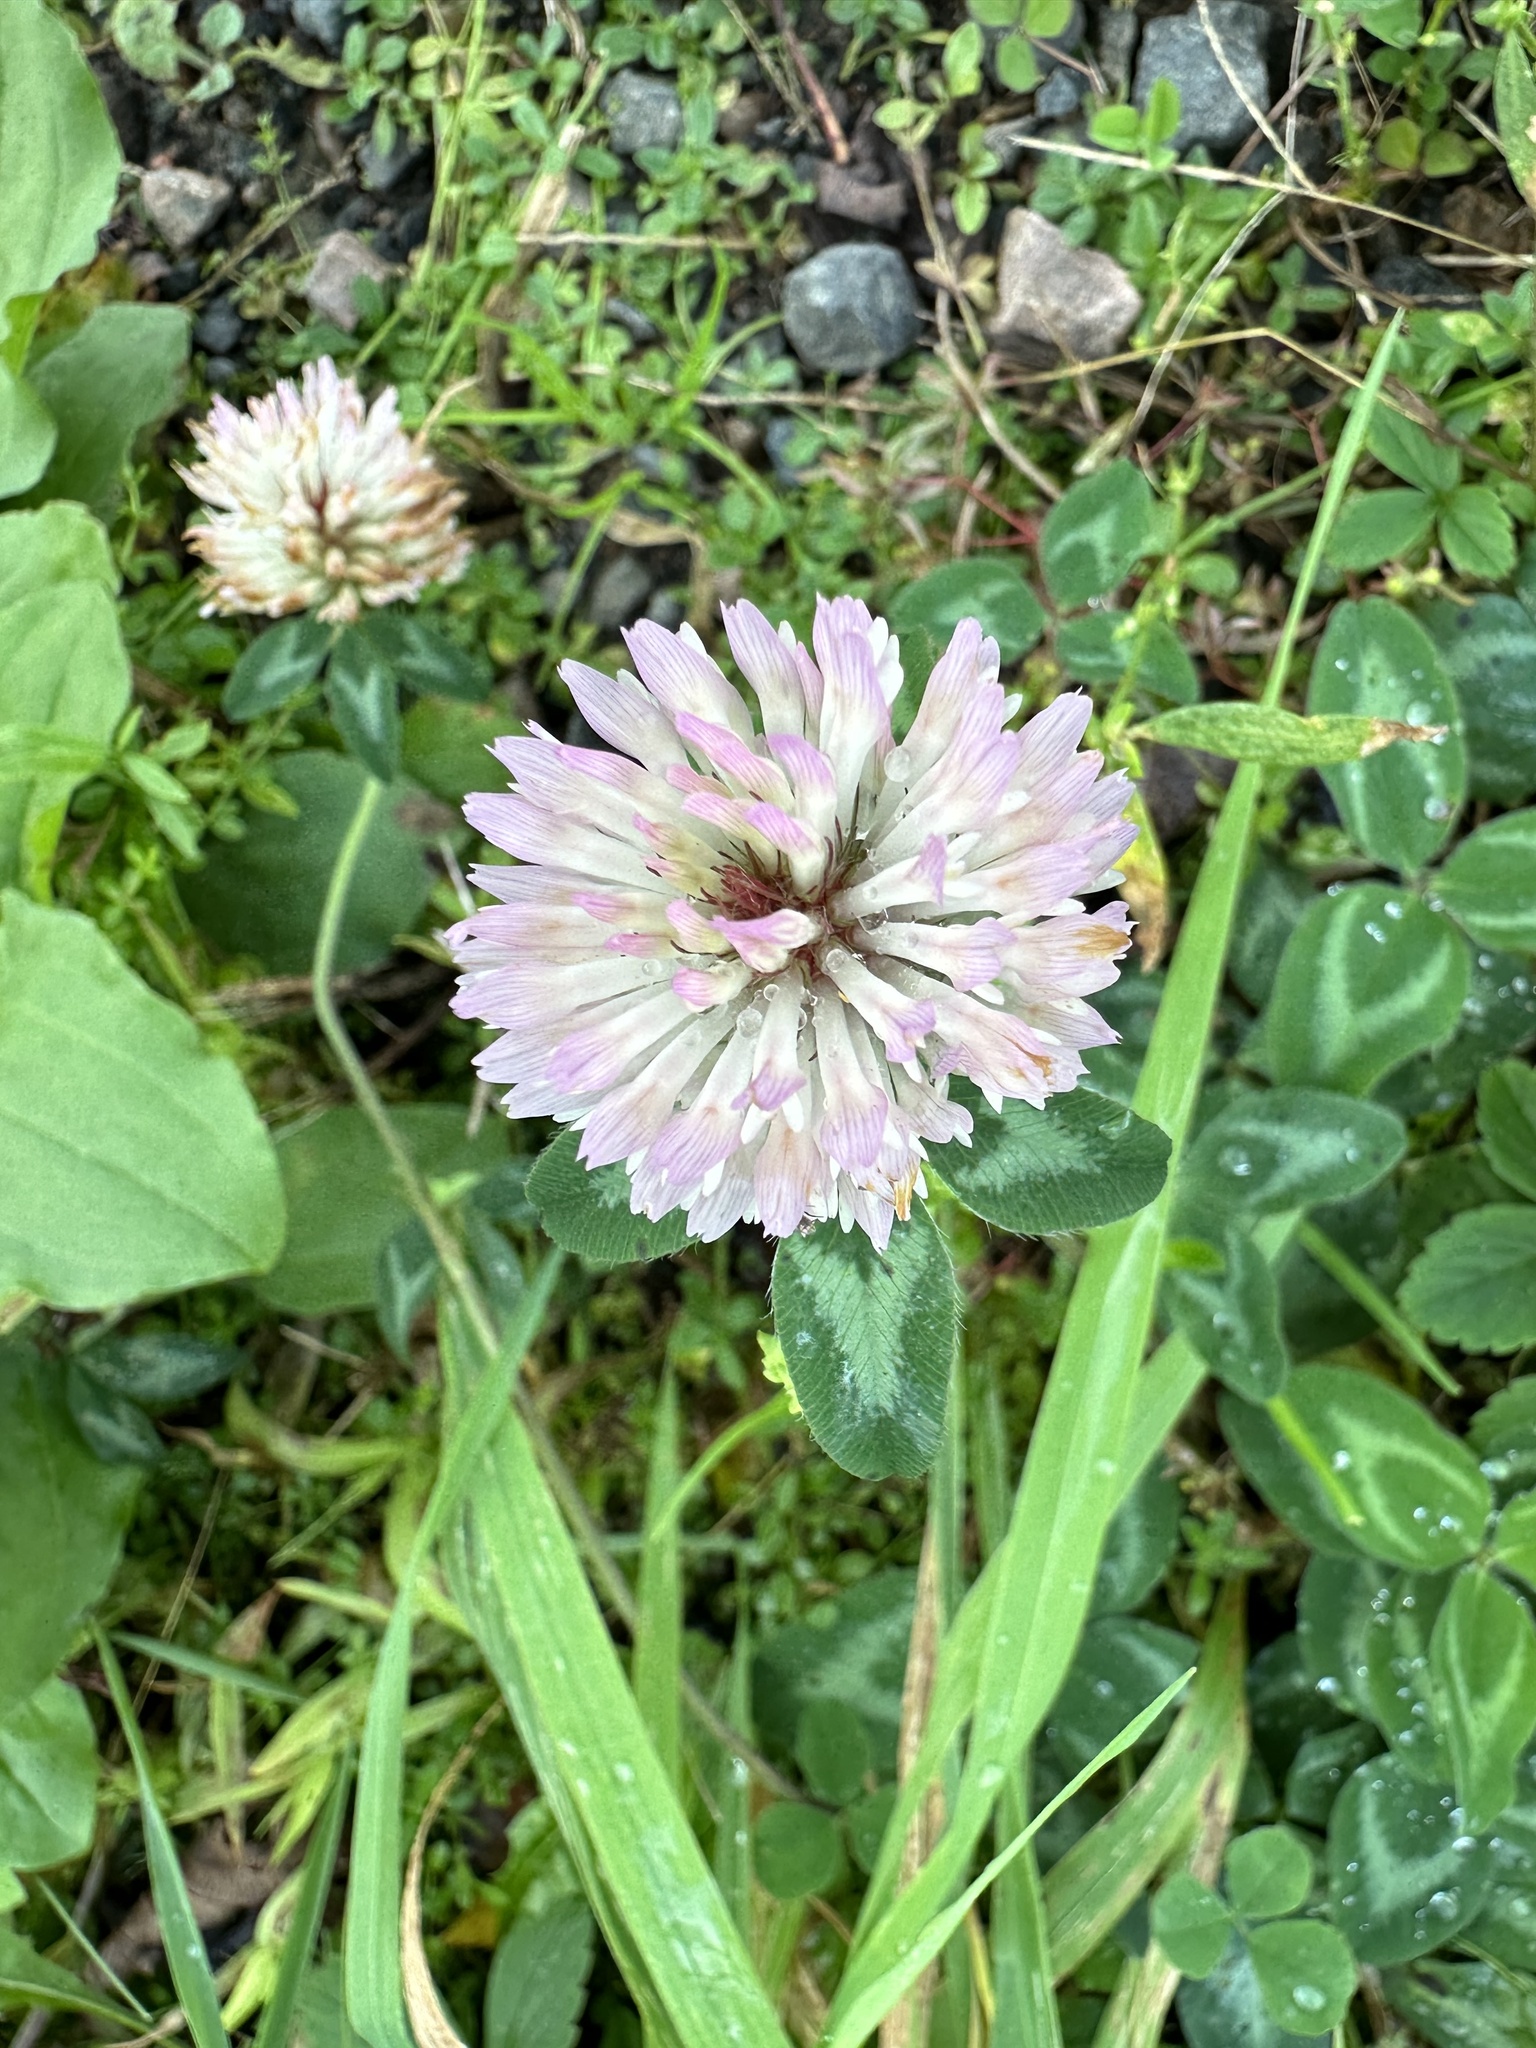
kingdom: Plantae
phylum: Tracheophyta
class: Magnoliopsida
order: Fabales
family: Fabaceae
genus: Trifolium
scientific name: Trifolium pratense
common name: Red clover
